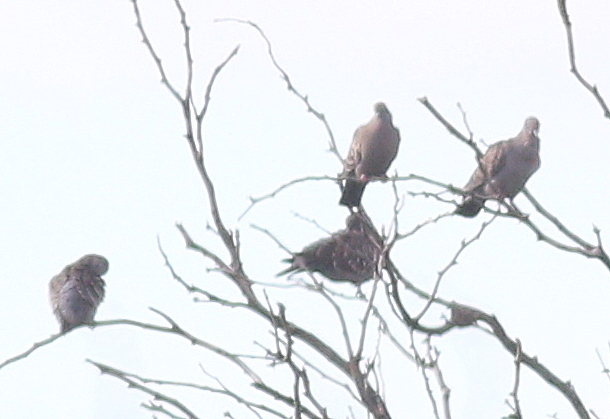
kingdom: Animalia
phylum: Chordata
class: Aves
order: Columbiformes
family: Columbidae
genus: Patagioenas
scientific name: Patagioenas maculosa
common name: Spot-winged pigeon
